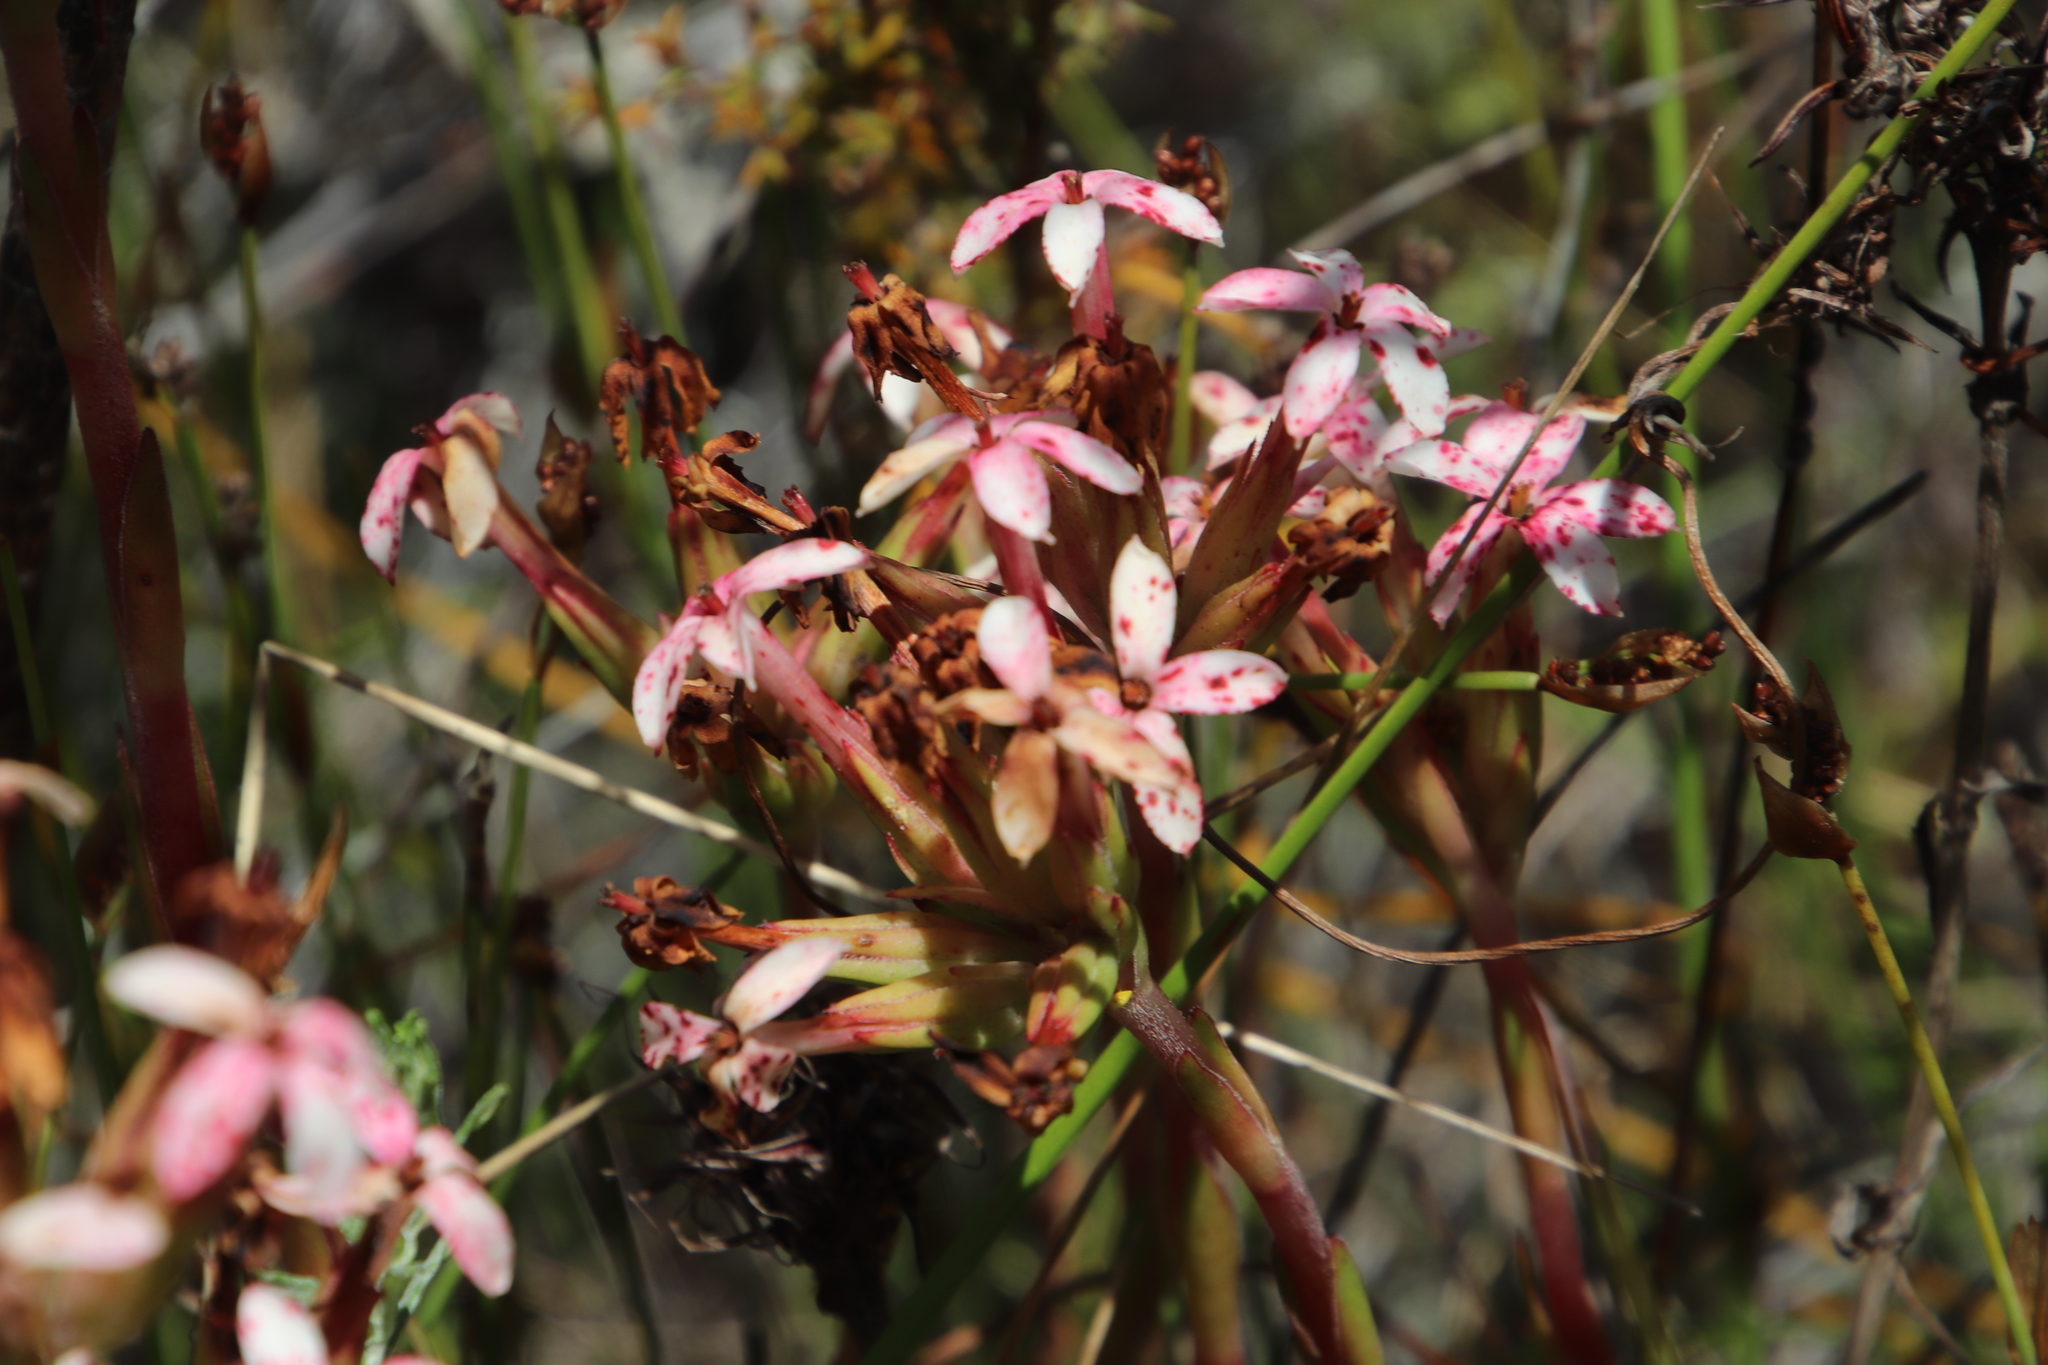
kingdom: Plantae
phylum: Tracheophyta
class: Magnoliopsida
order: Saxifragales
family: Crassulaceae
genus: Crassula
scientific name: Crassula fascicularis
